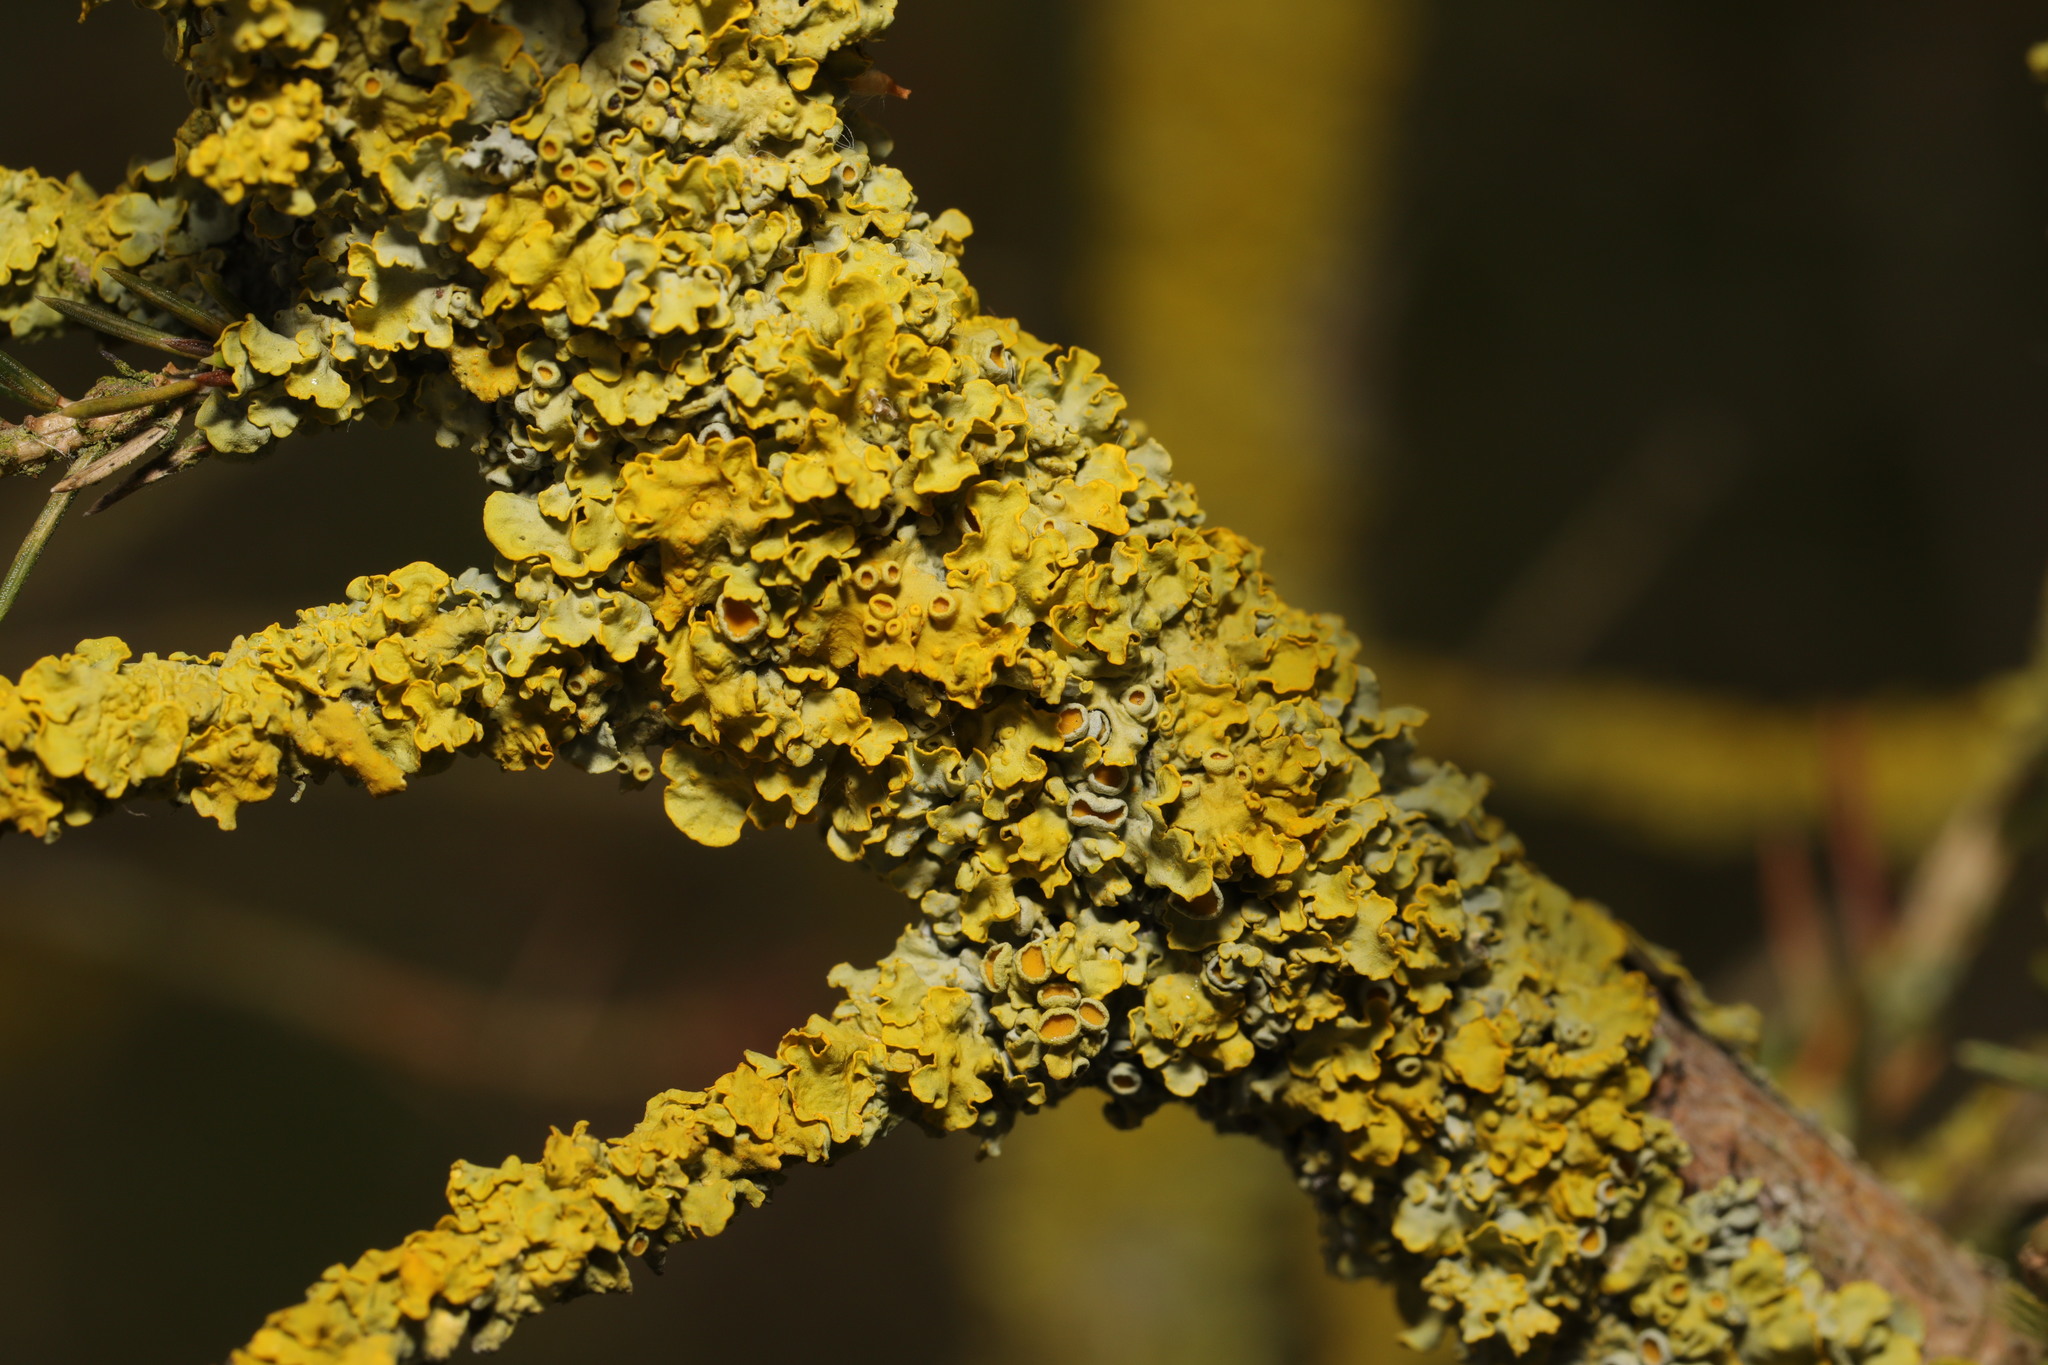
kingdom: Fungi
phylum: Ascomycota
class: Lecanoromycetes
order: Teloschistales
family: Teloschistaceae
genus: Xanthoria
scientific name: Xanthoria parietina
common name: Common orange lichen
